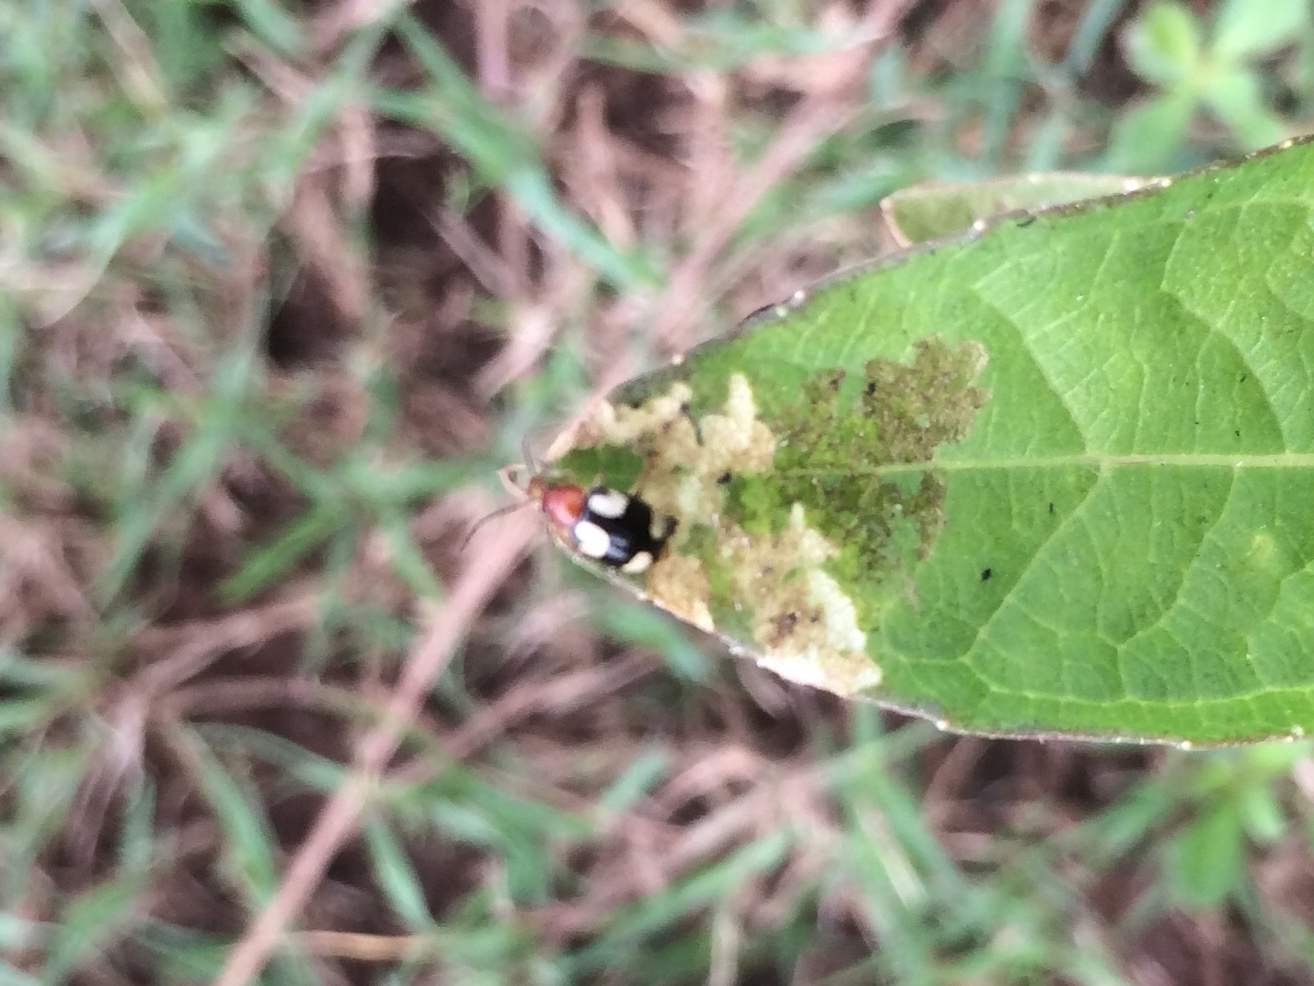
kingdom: Animalia
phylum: Arthropoda
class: Insecta
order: Coleoptera
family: Chrysomelidae
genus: Monolepta
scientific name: Monolepta signata
